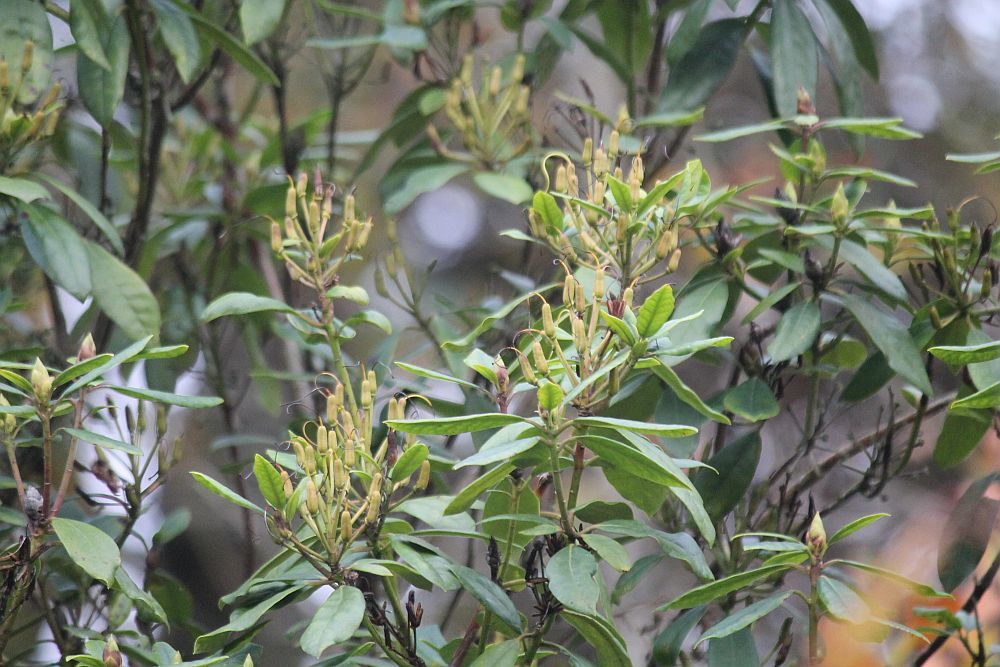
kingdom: Plantae
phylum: Tracheophyta
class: Magnoliopsida
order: Ericales
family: Ericaceae
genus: Rhododendron
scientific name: Rhododendron ponticum
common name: Rhododendron
